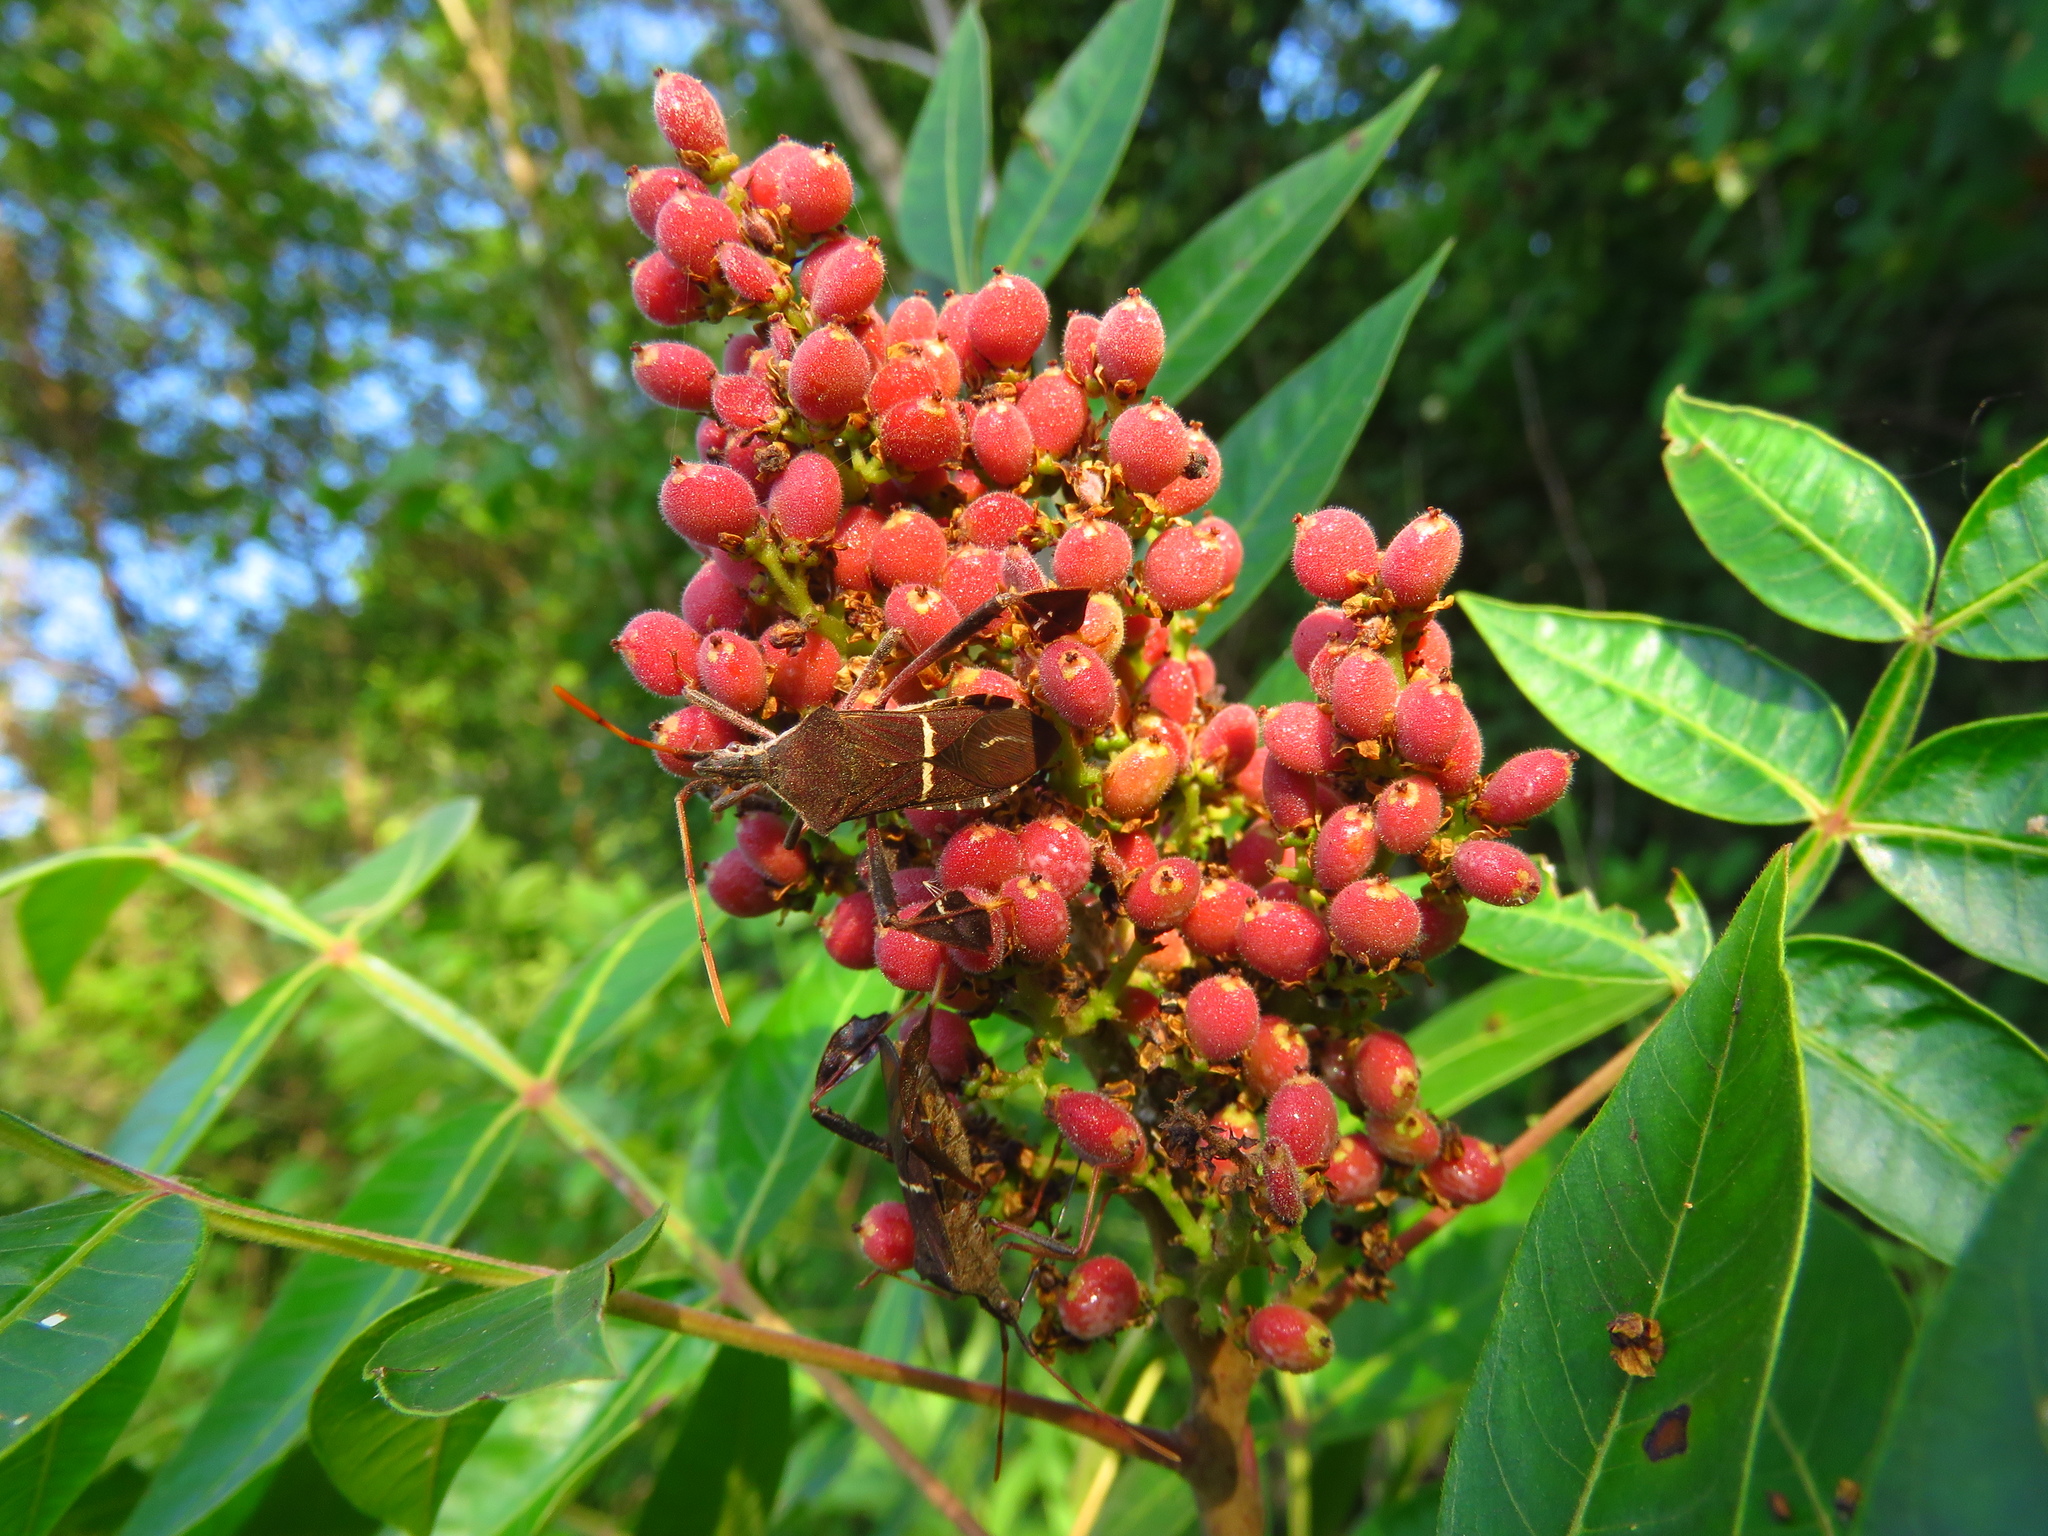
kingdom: Plantae
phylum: Tracheophyta
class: Magnoliopsida
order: Sapindales
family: Anacardiaceae
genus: Rhus
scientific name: Rhus copallina
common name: Shining sumac
